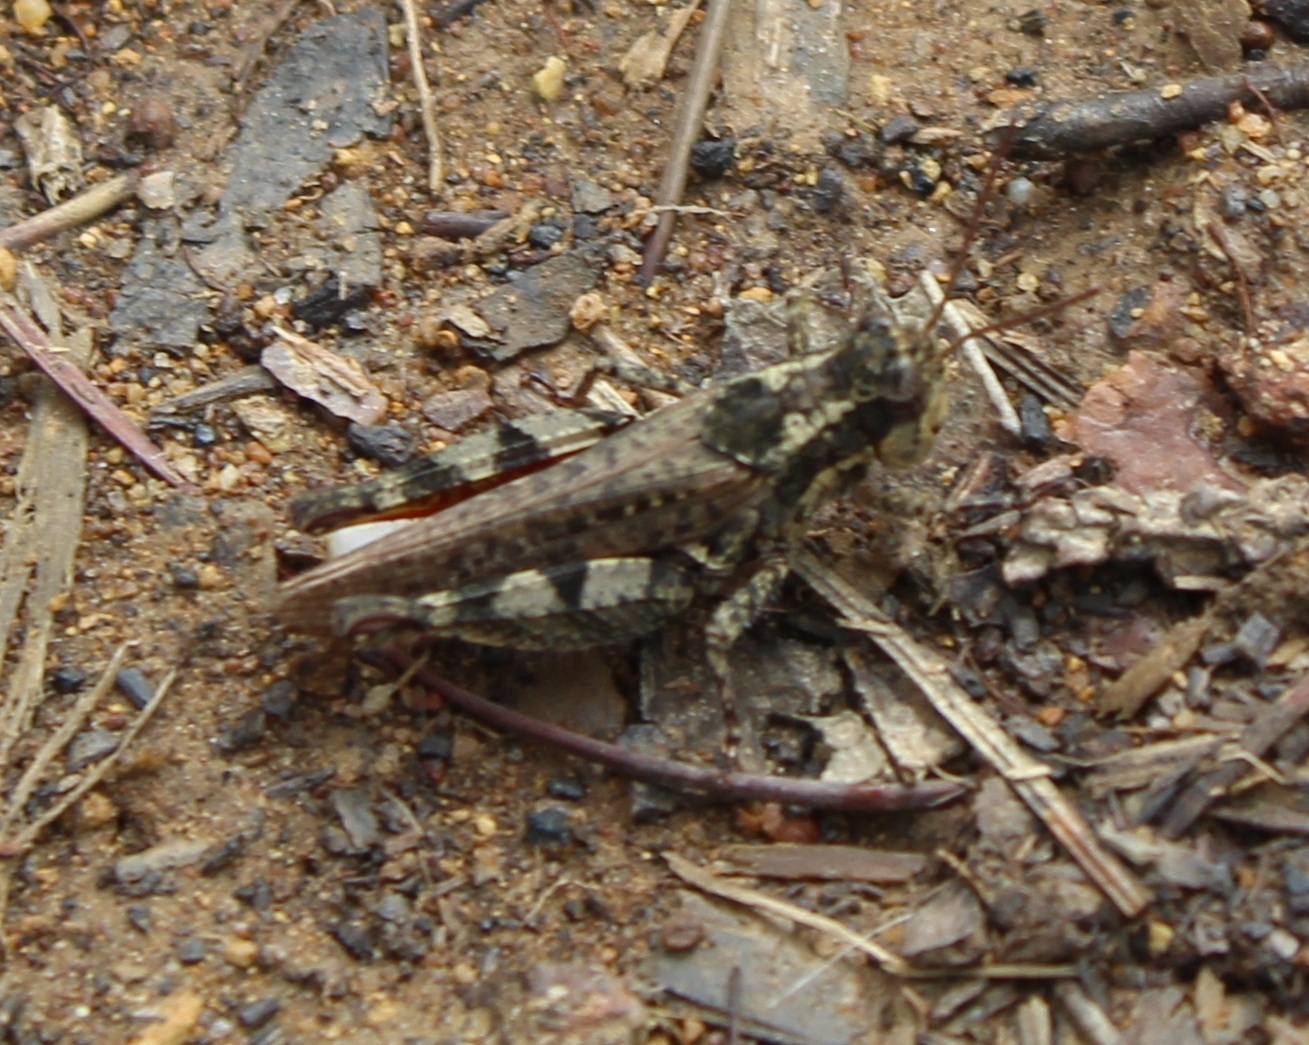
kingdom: Animalia
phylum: Arthropoda
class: Insecta
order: Orthoptera
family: Acrididae
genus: Baeacris
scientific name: Baeacris bogotensis
